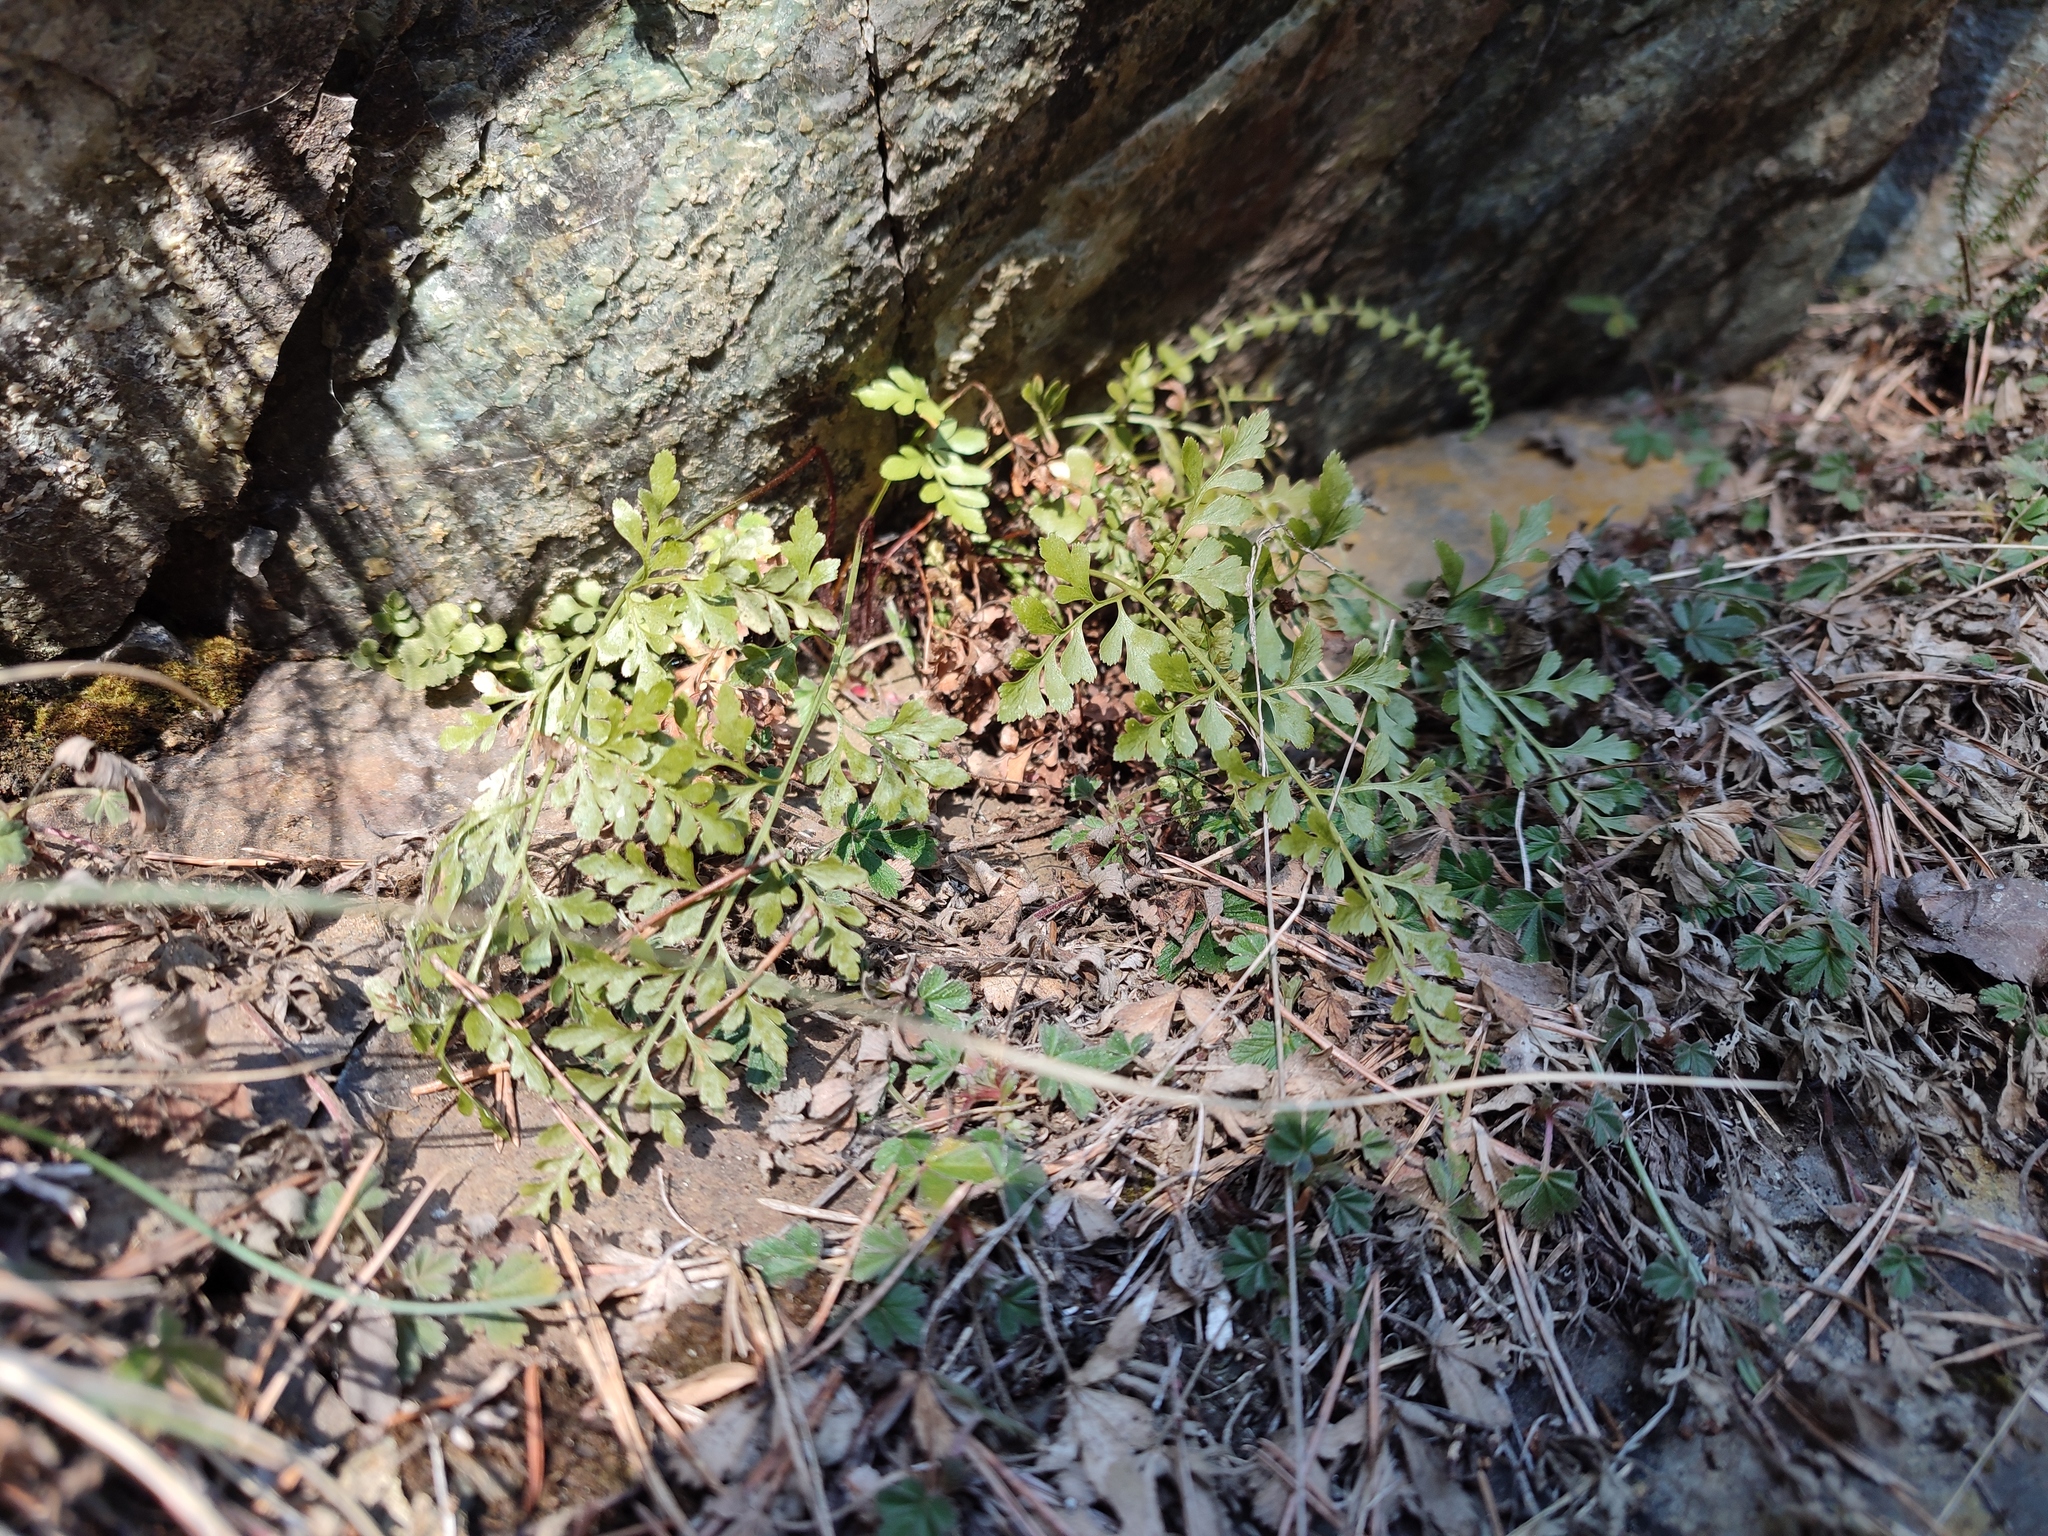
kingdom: Plantae
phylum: Tracheophyta
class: Polypodiopsida
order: Polypodiales
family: Aspleniaceae
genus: Asplenium
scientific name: Asplenium cuneifolium
